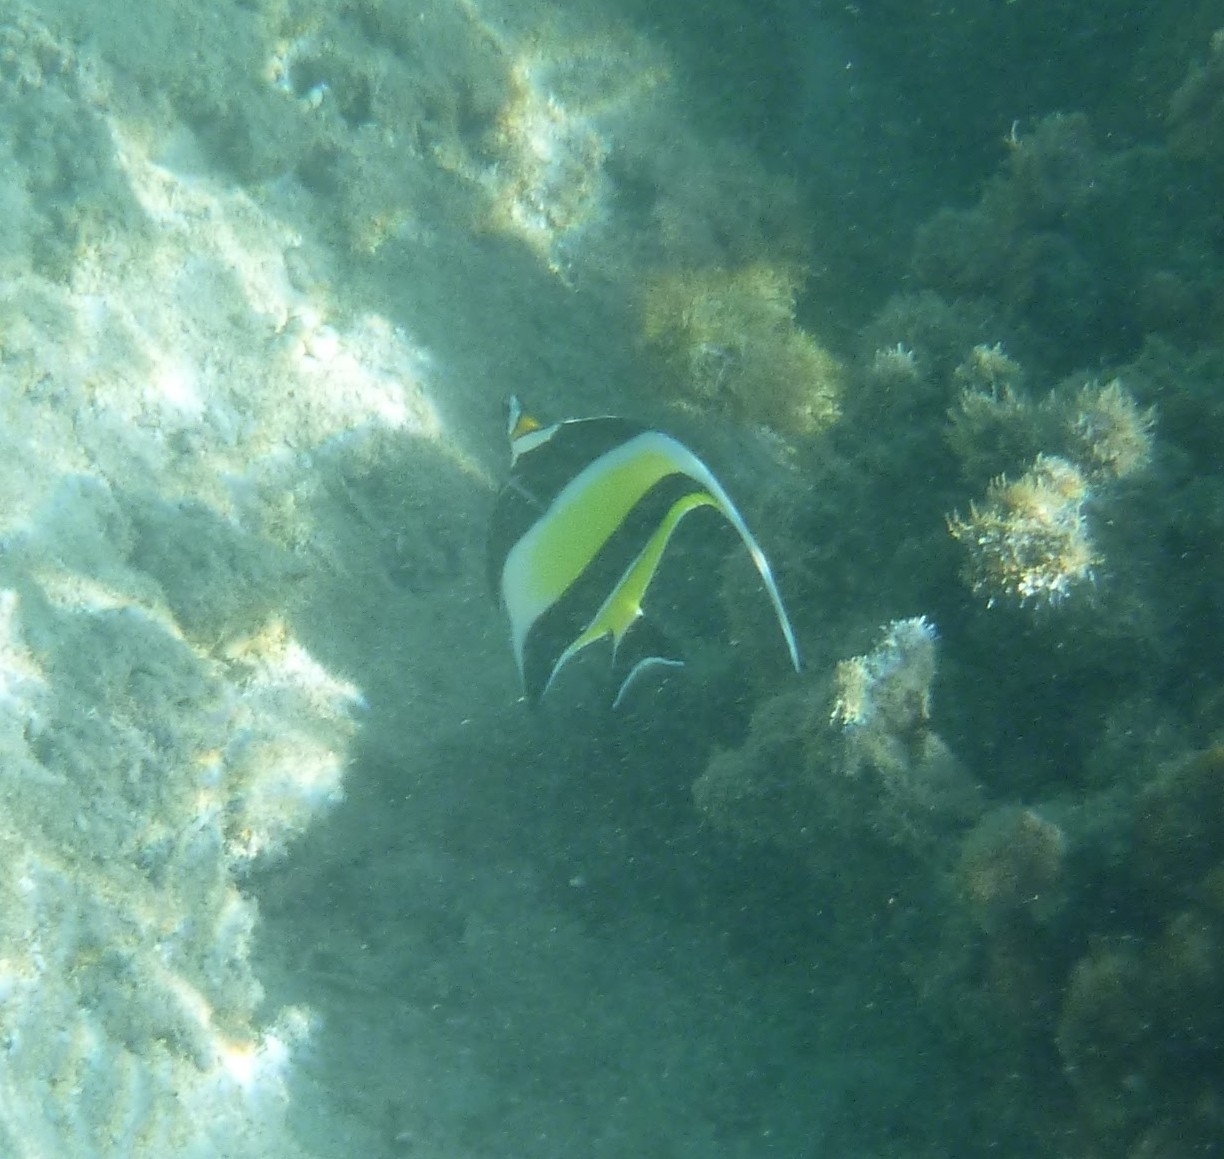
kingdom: Animalia
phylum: Chordata
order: Perciformes
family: Zanclidae
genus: Zanclus
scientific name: Zanclus cornutus
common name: Moorish idol
